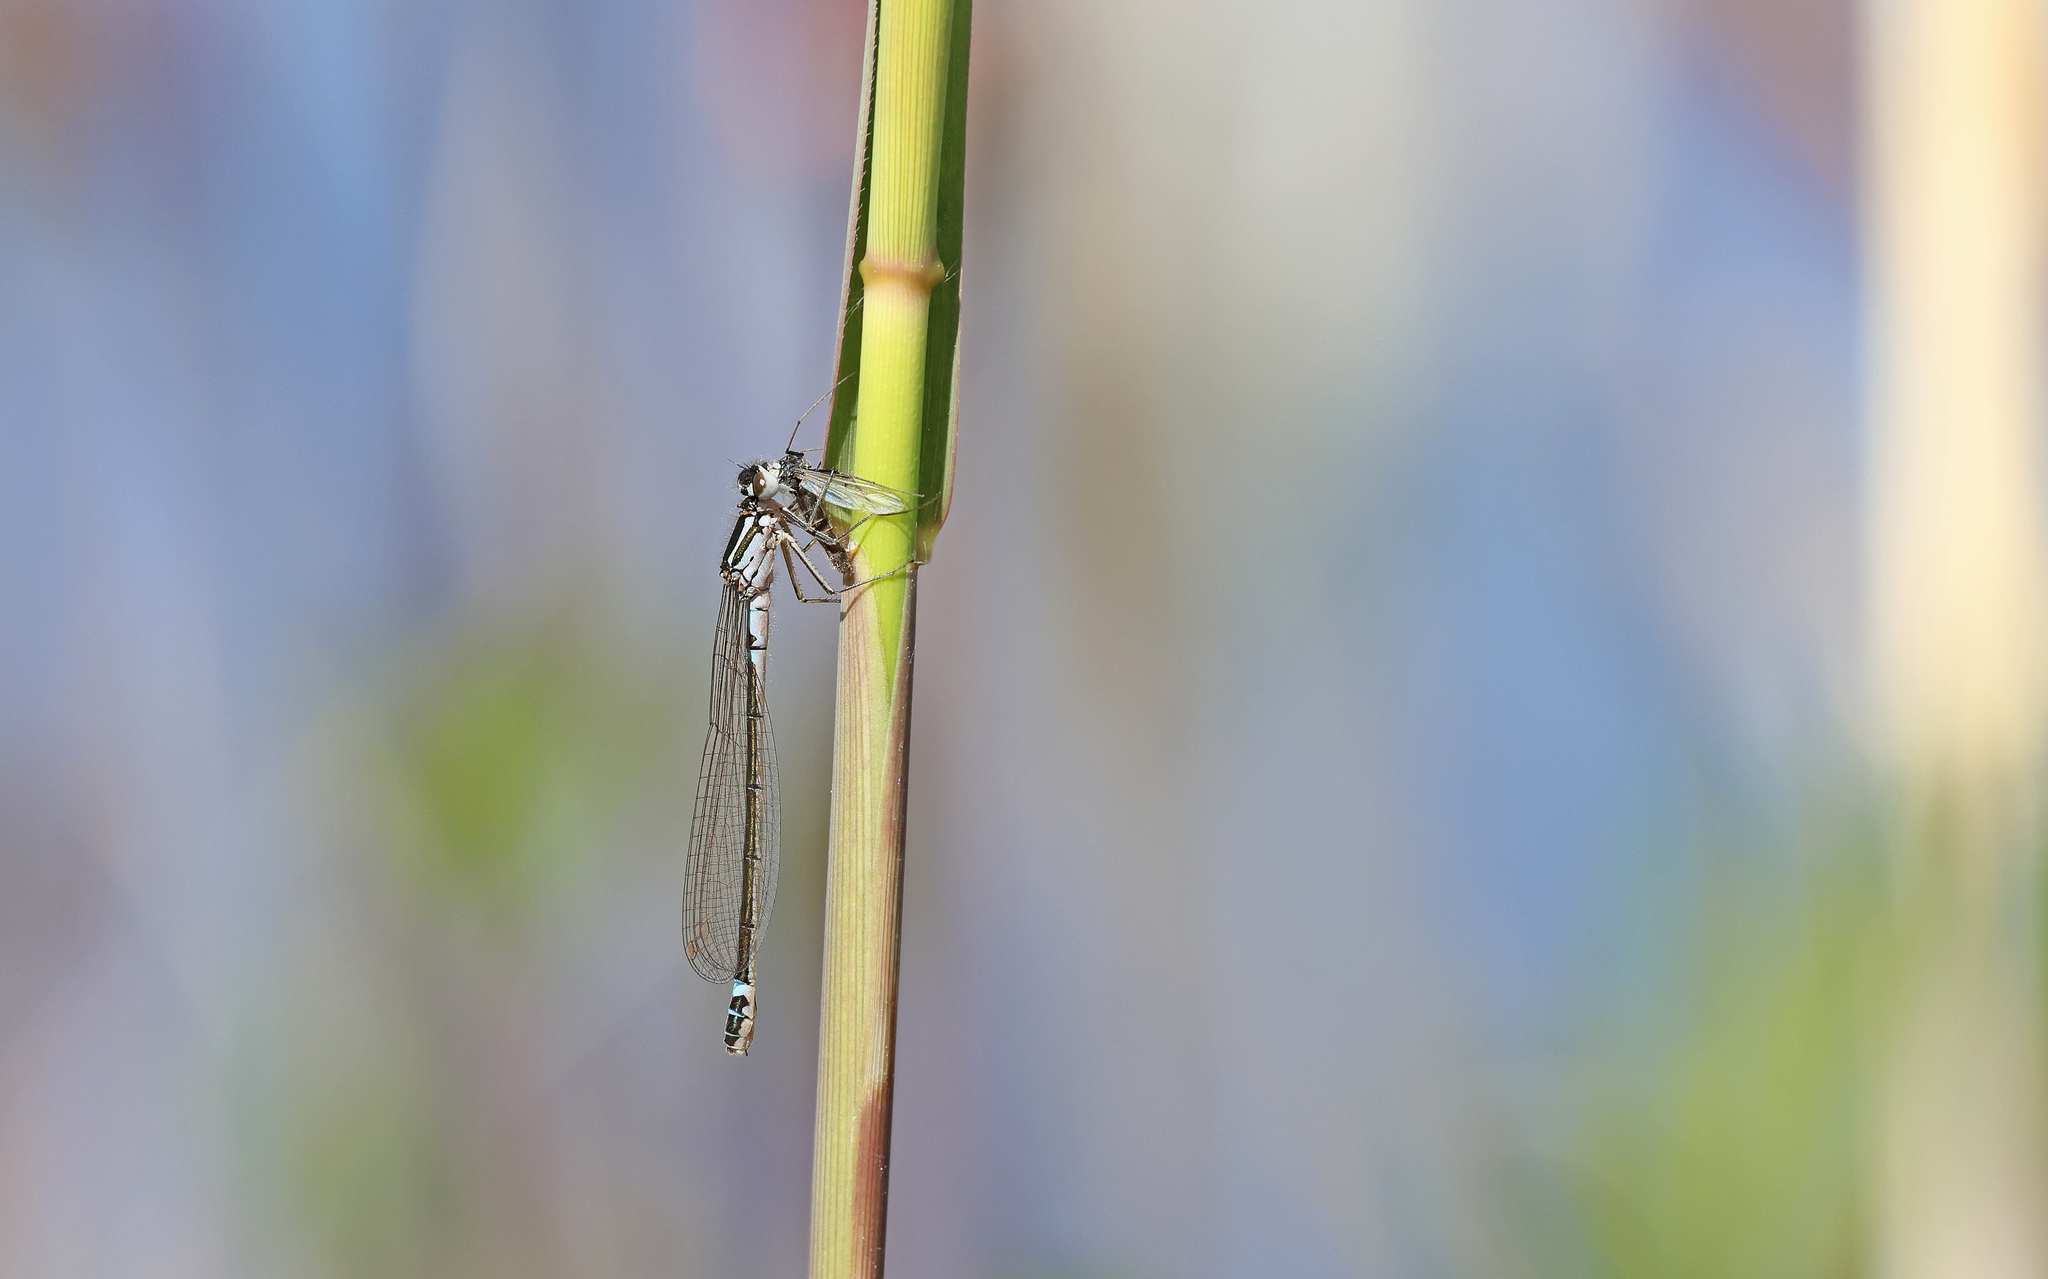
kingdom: Animalia
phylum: Arthropoda
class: Insecta
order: Odonata
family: Coenagrionidae
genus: Coenagrion
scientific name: Coenagrion armatum
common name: Dark bluet
